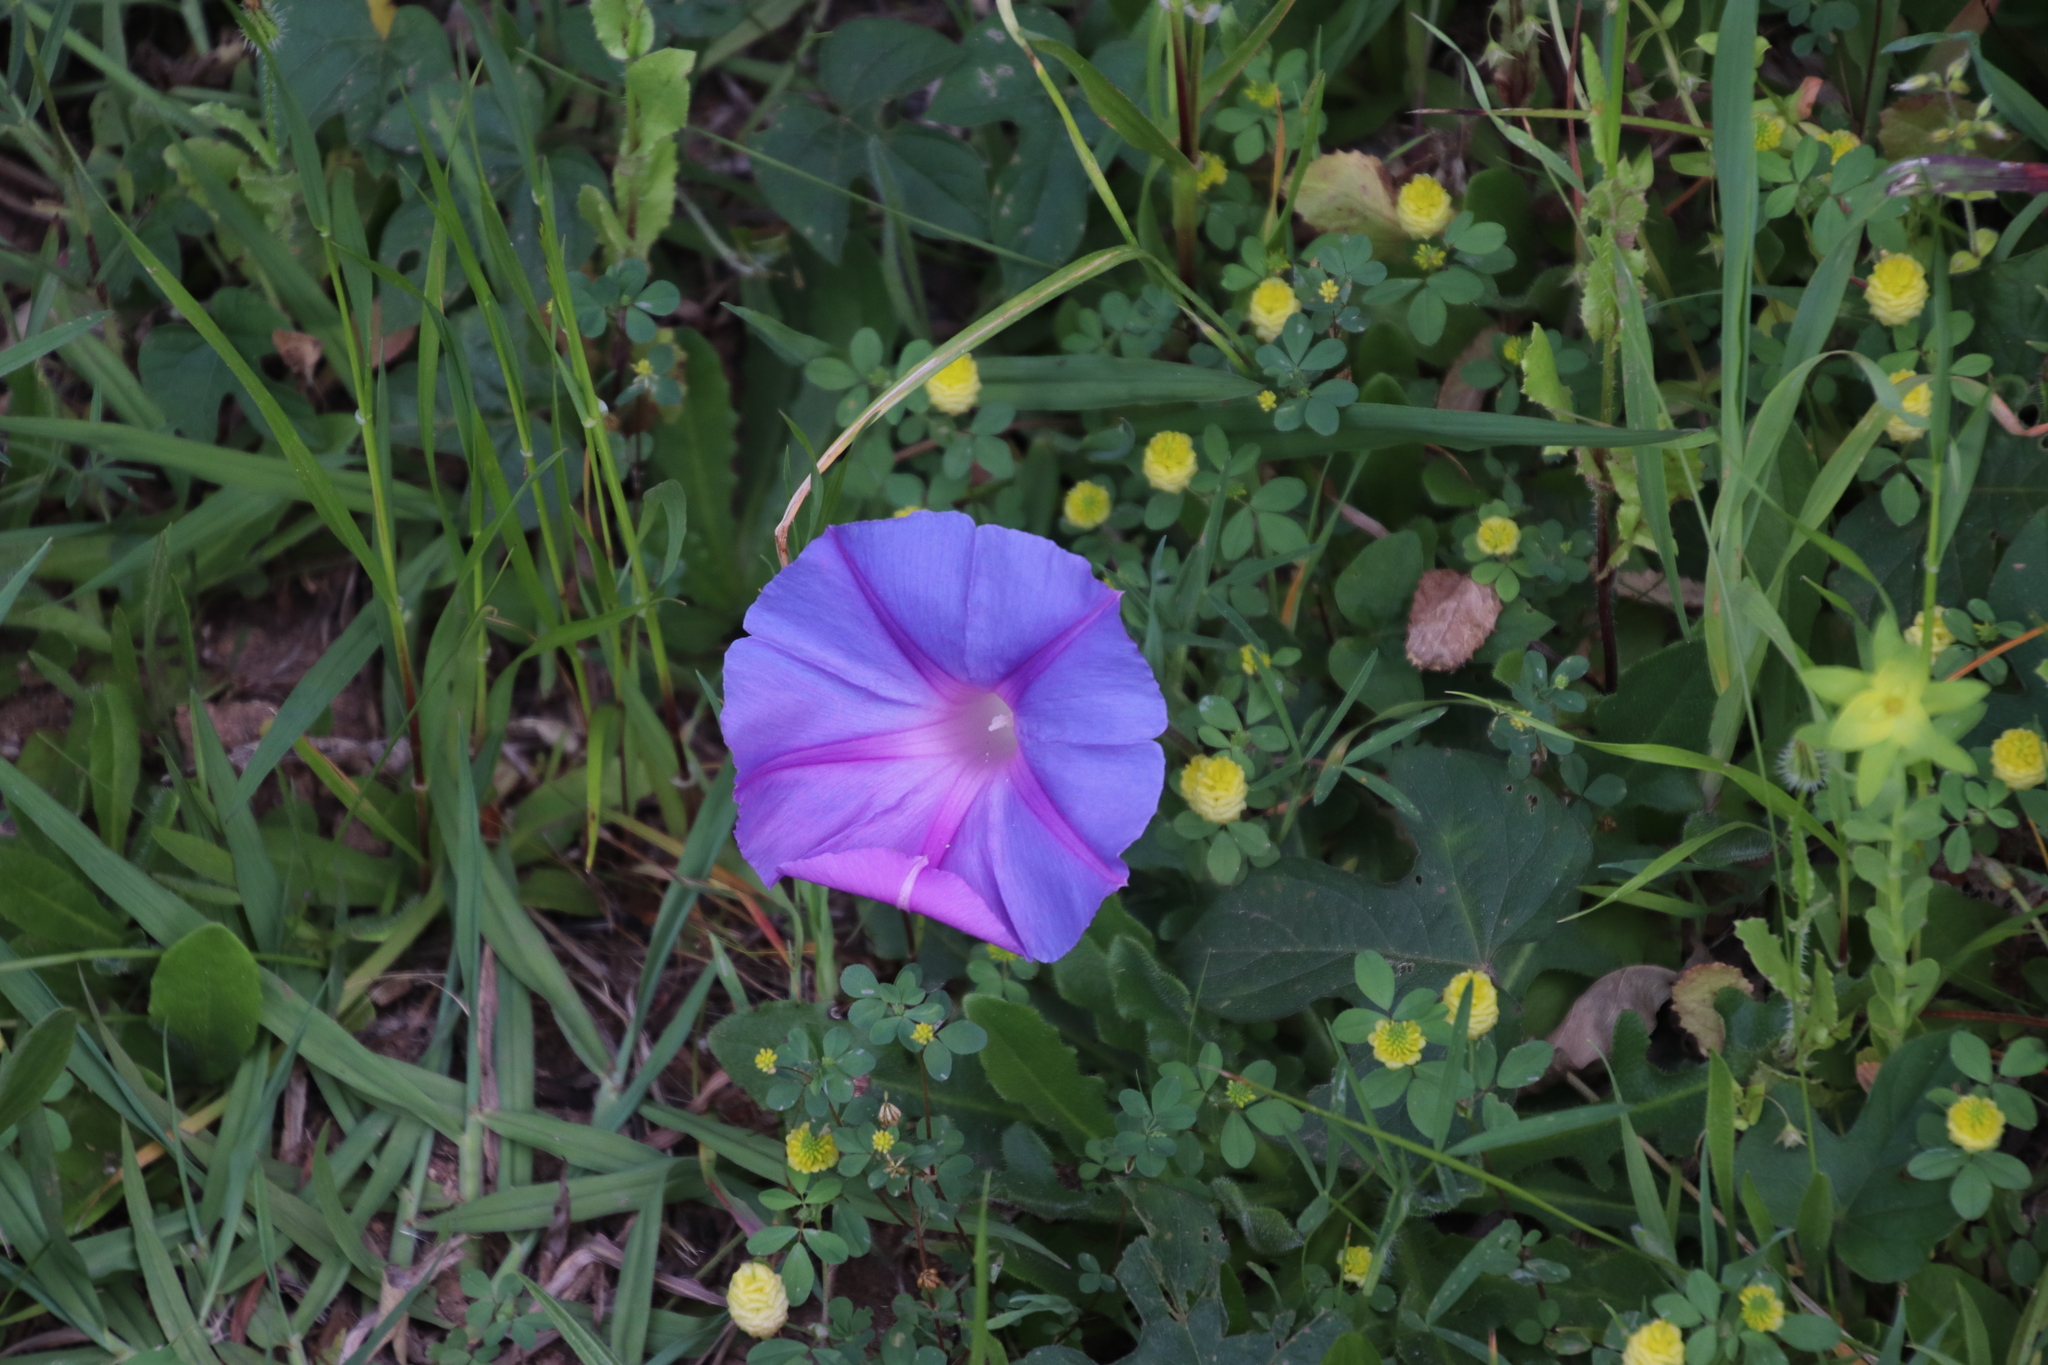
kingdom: Plantae
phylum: Tracheophyta
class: Magnoliopsida
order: Solanales
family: Convolvulaceae
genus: Ipomoea
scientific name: Ipomoea indica
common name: Blue dawnflower
